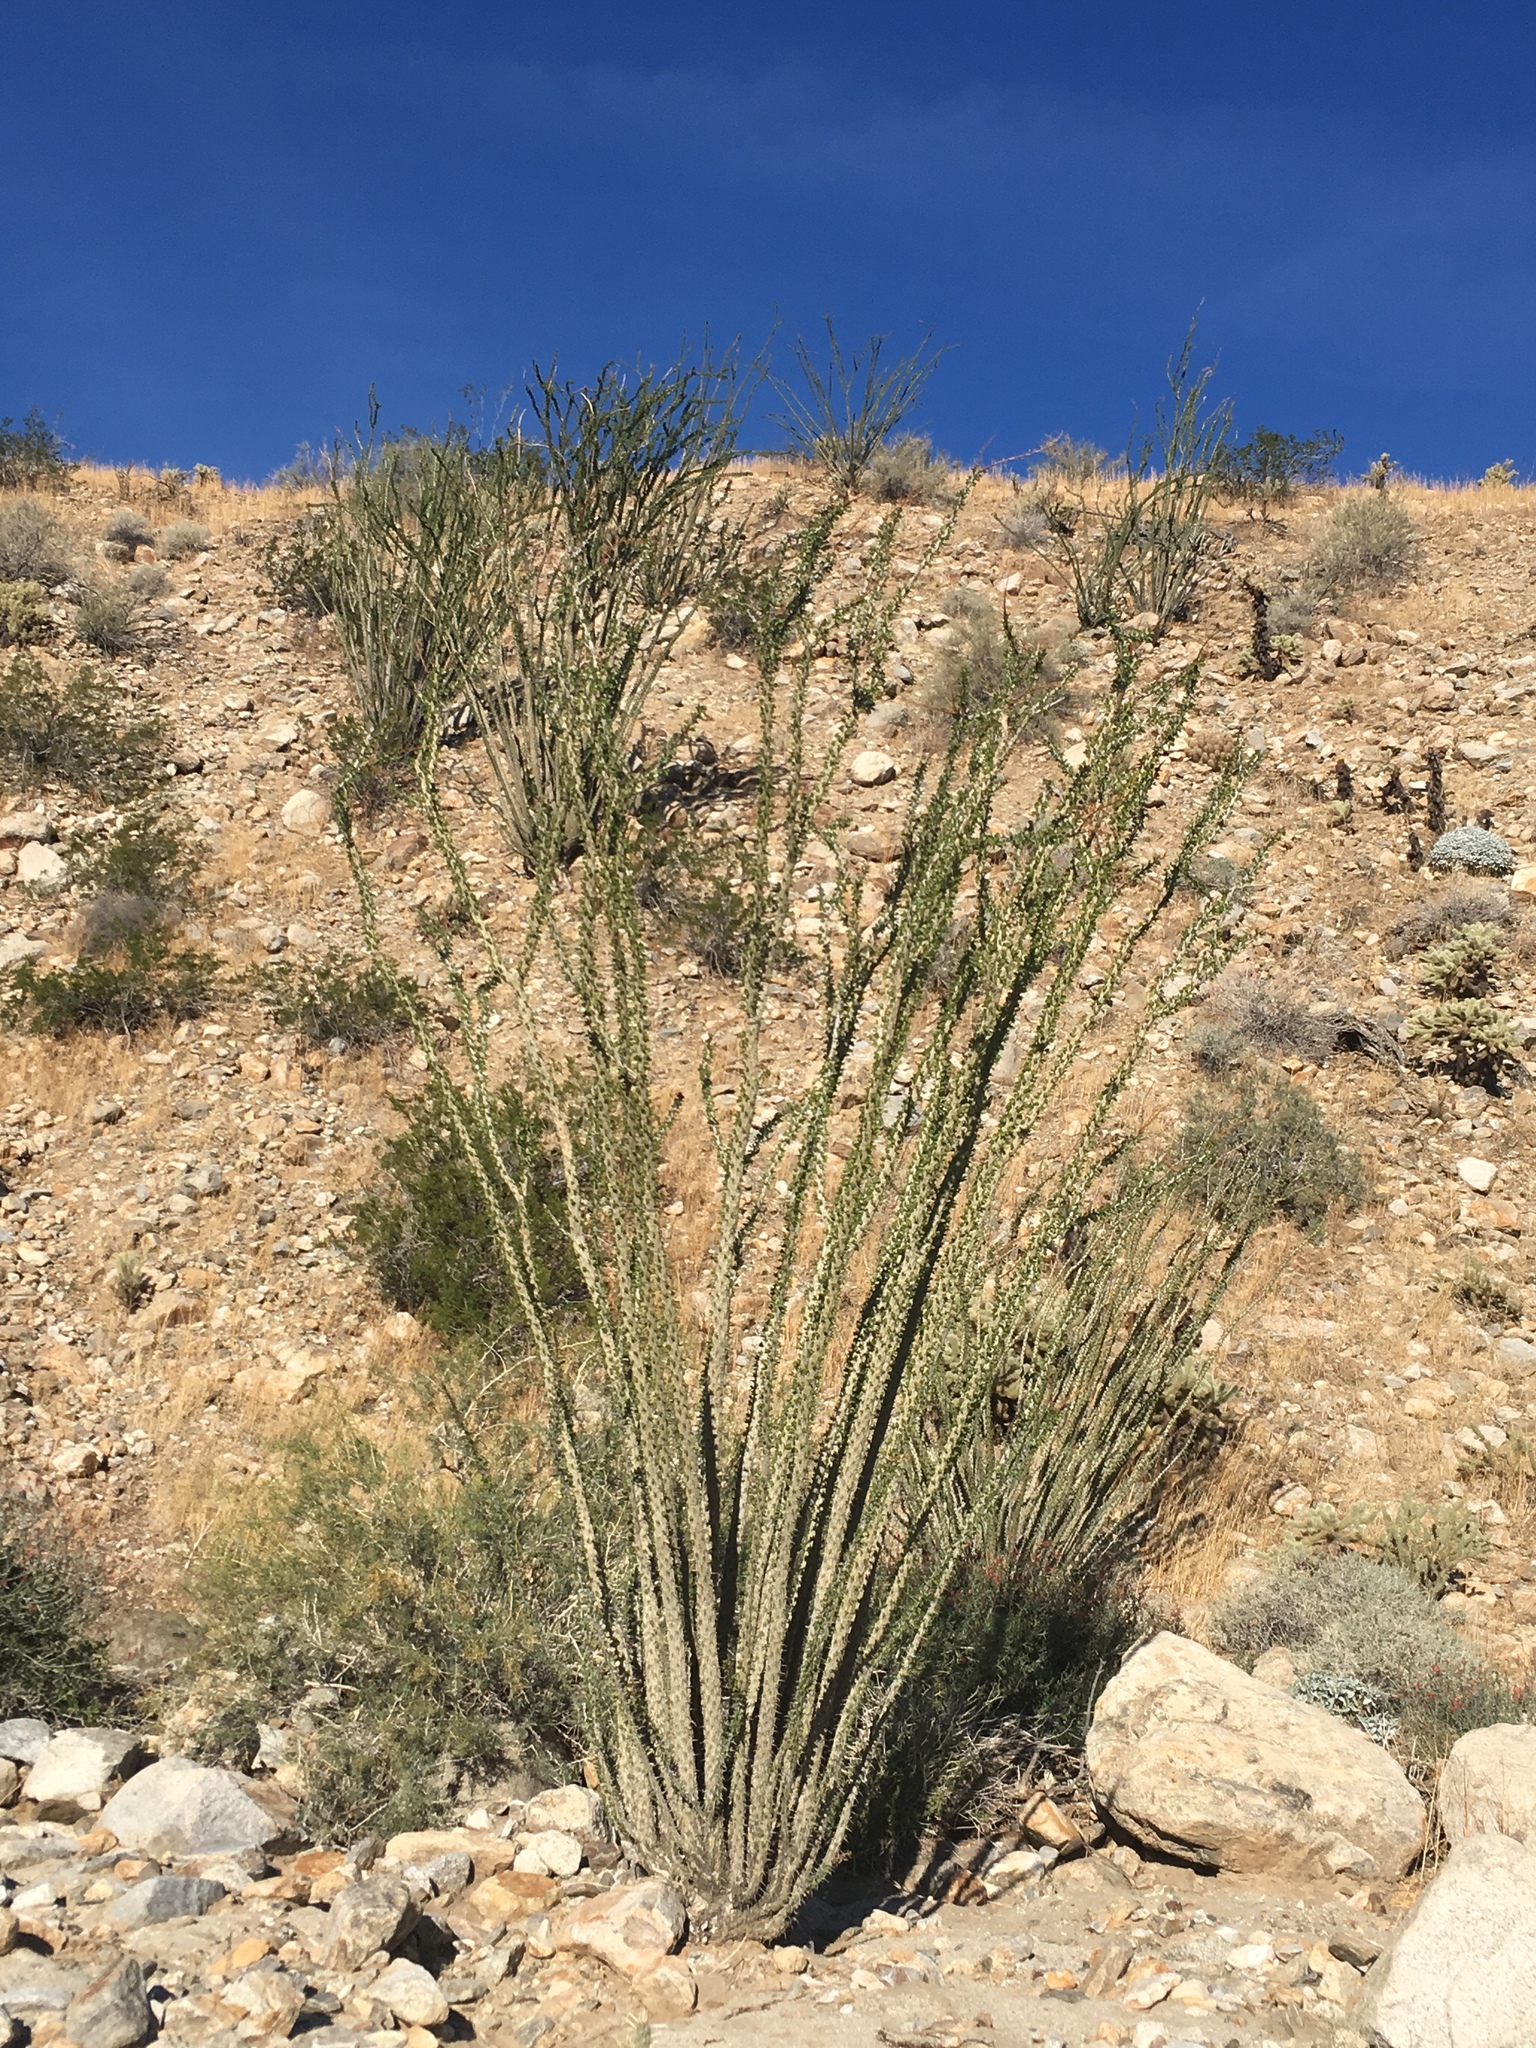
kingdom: Plantae
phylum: Tracheophyta
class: Magnoliopsida
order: Ericales
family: Fouquieriaceae
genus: Fouquieria
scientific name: Fouquieria splendens
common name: Vine-cactus
